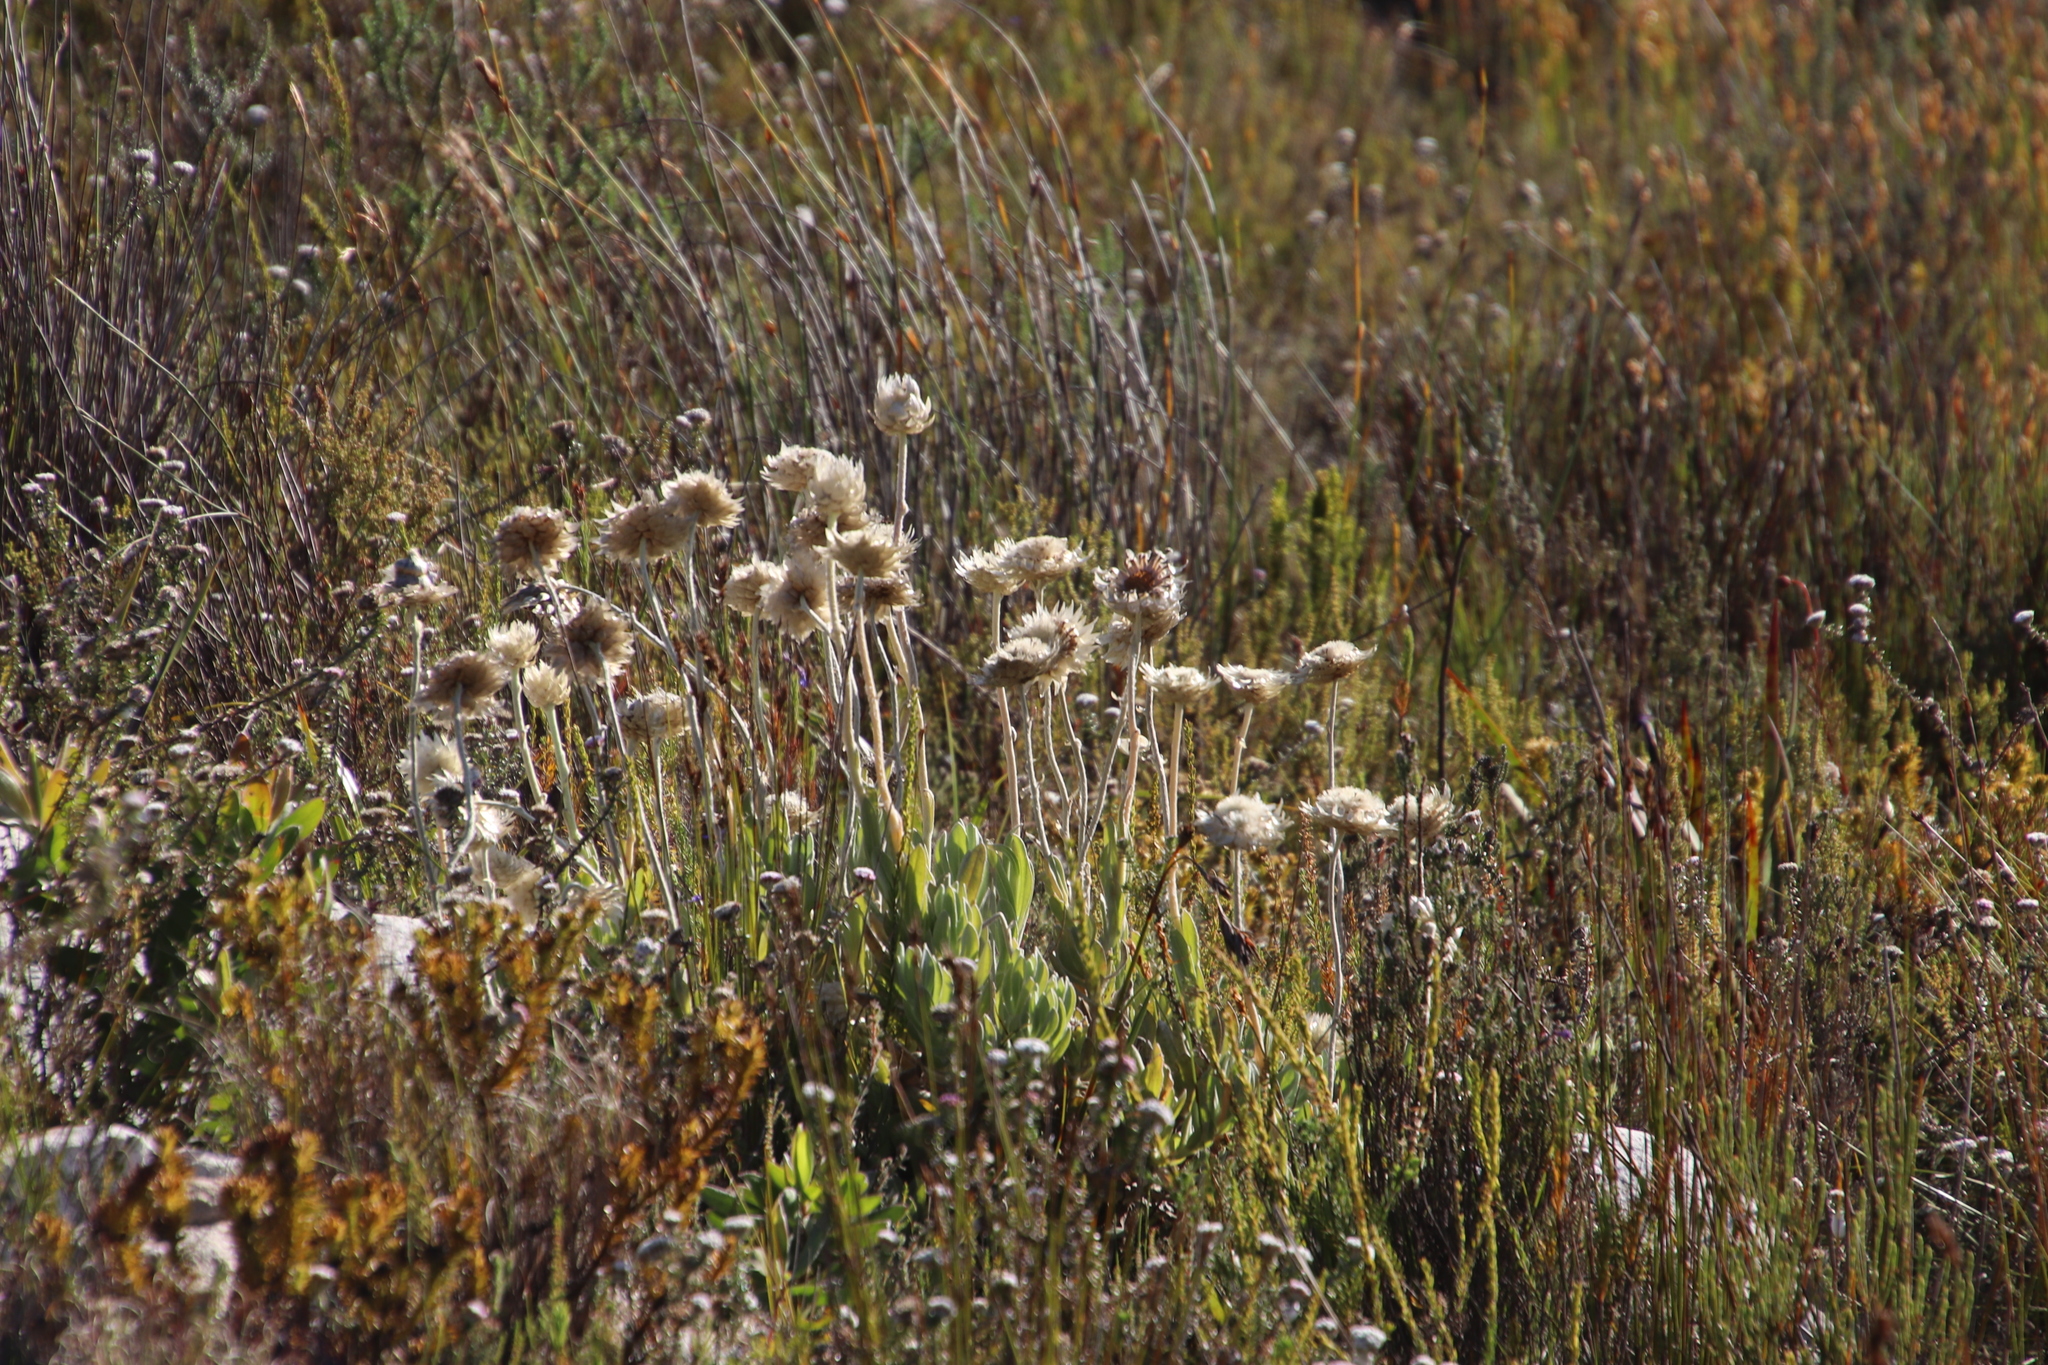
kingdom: Plantae
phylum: Tracheophyta
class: Magnoliopsida
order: Asterales
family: Asteraceae
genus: Syncarpha
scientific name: Syncarpha speciosissima
